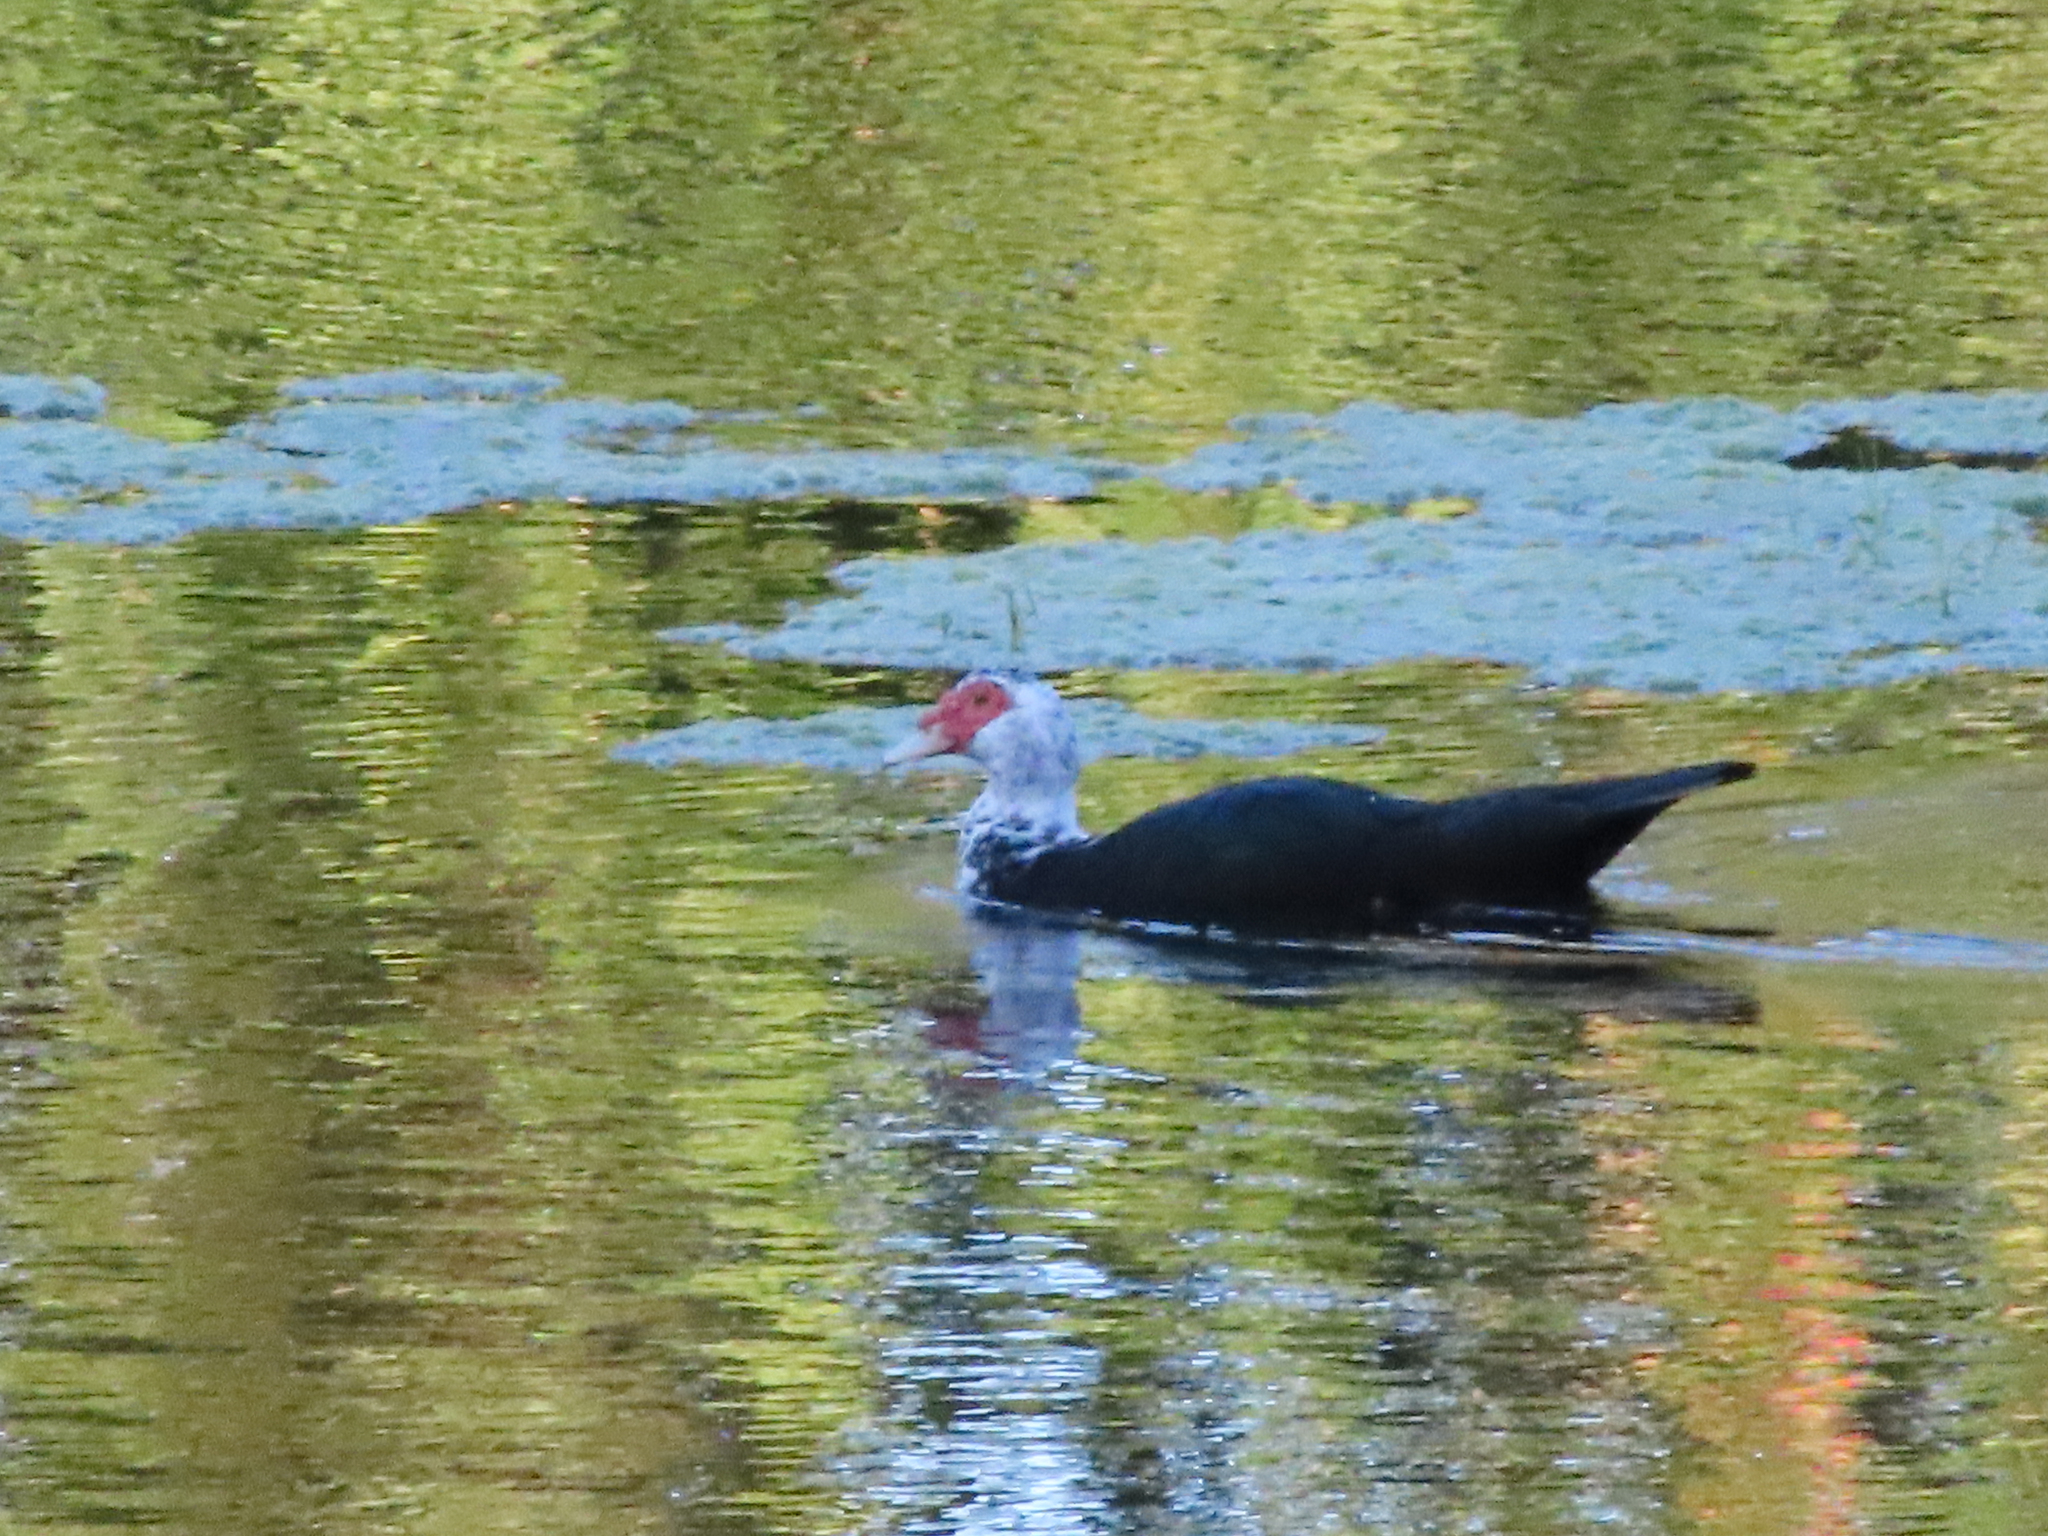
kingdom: Animalia
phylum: Chordata
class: Aves
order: Anseriformes
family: Anatidae
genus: Cairina
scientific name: Cairina moschata
